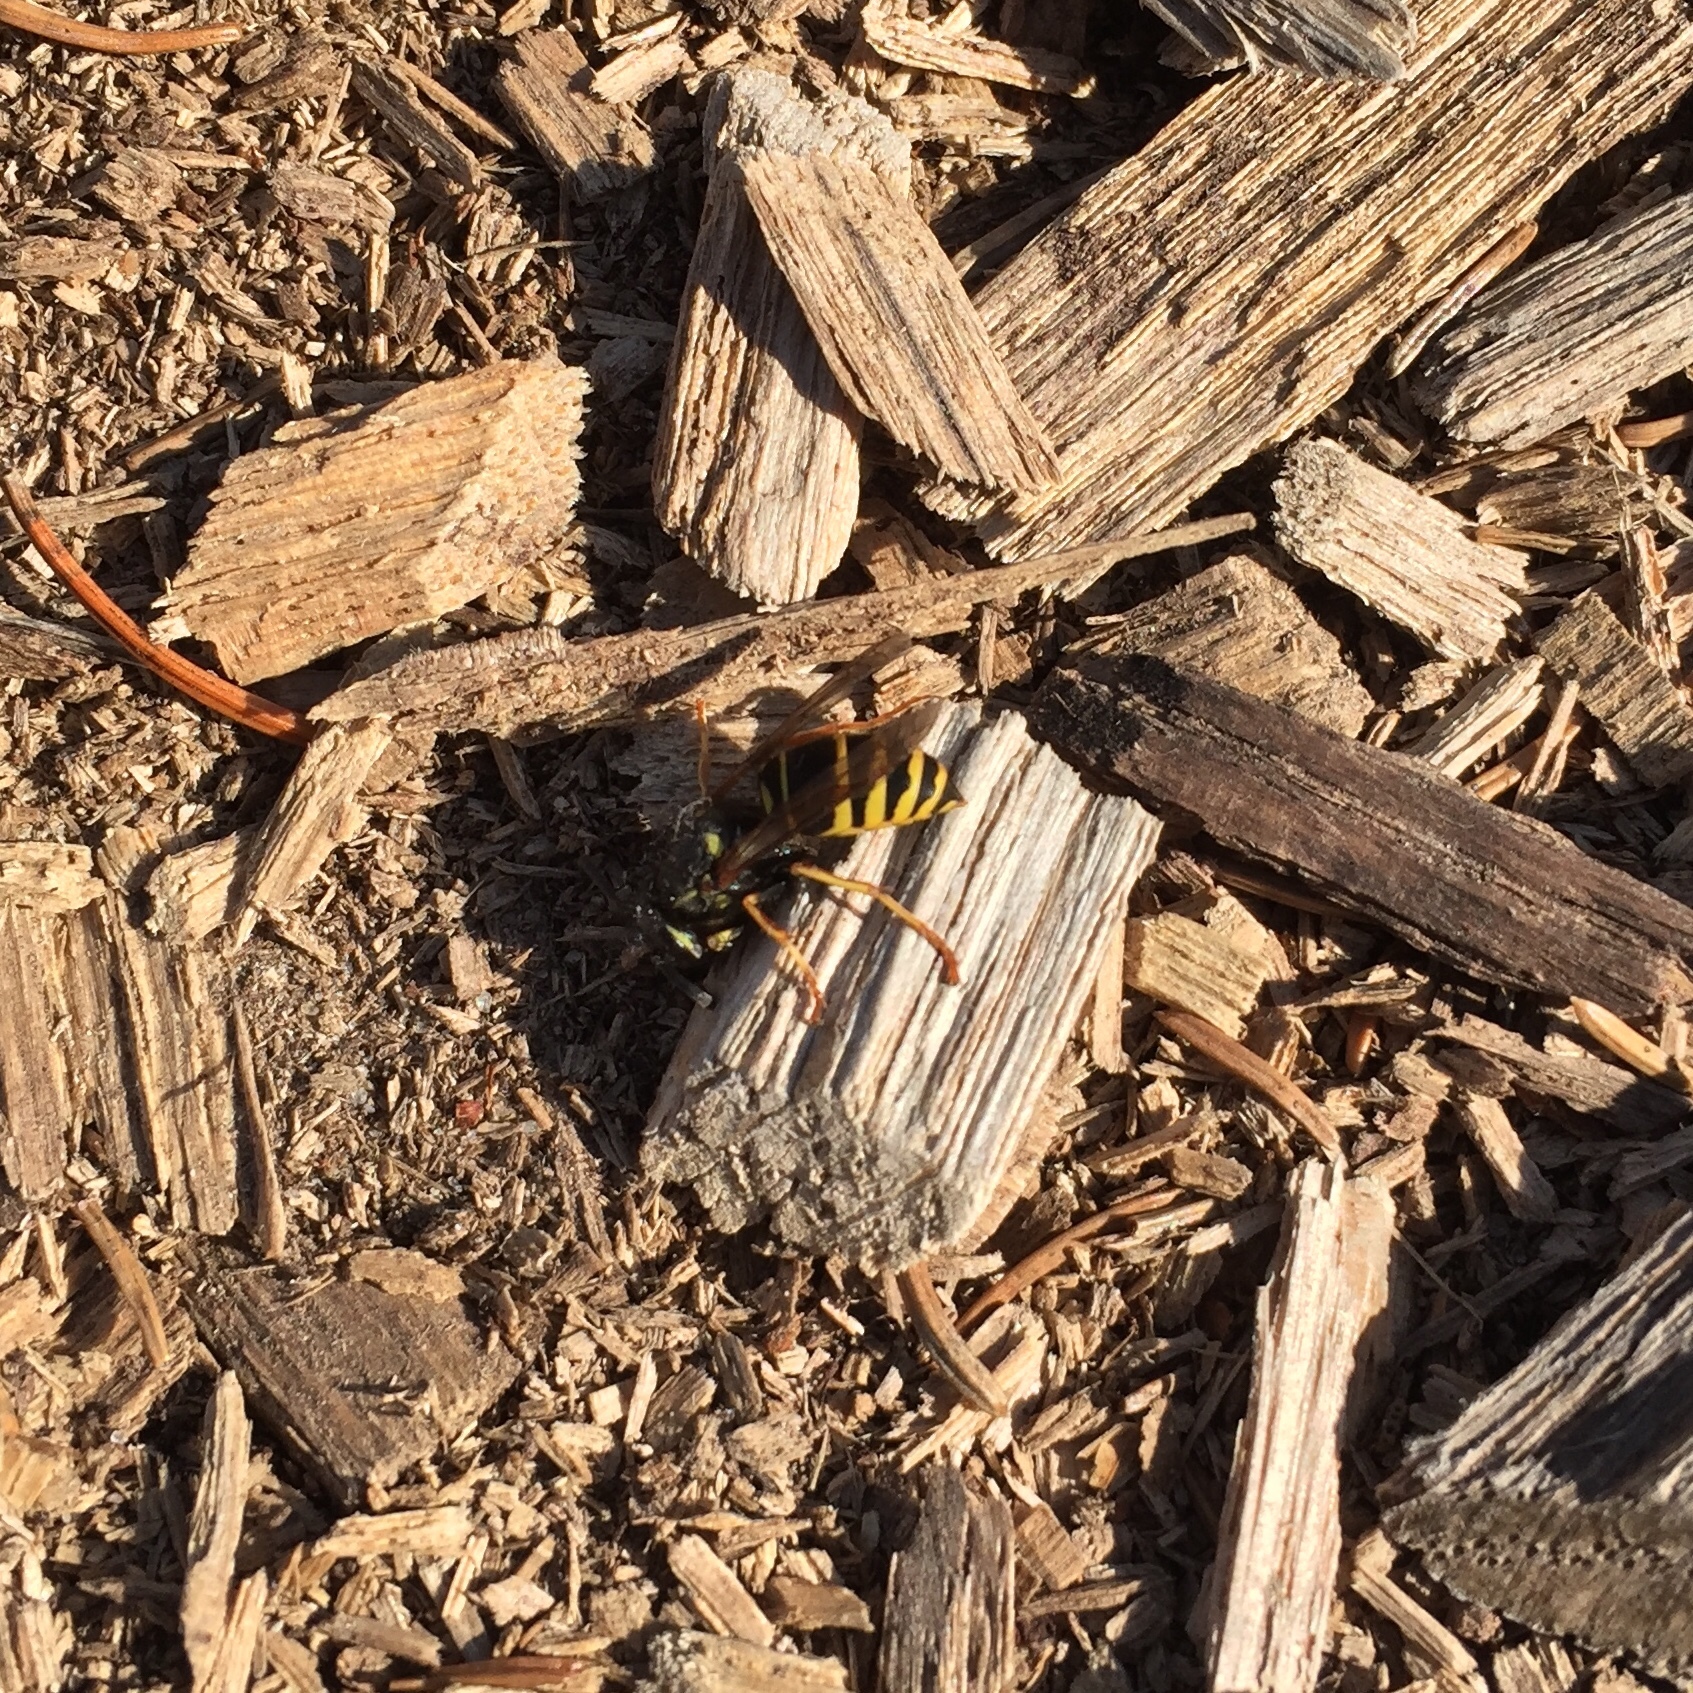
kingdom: Animalia
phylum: Arthropoda
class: Insecta
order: Hymenoptera
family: Vespidae
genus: Vespula
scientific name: Vespula acadica
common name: Forest yellowjacket
